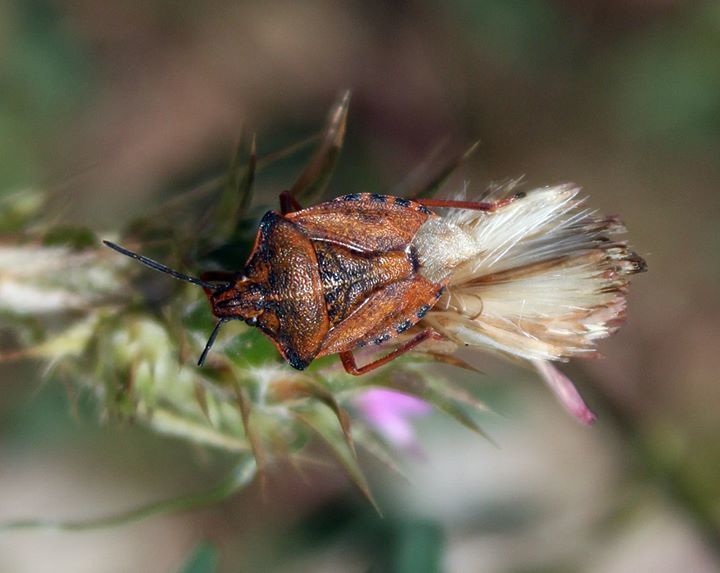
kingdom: Animalia
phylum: Arthropoda
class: Insecta
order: Hemiptera
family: Pentatomidae
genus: Carpocoris
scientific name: Carpocoris mediterraneus
